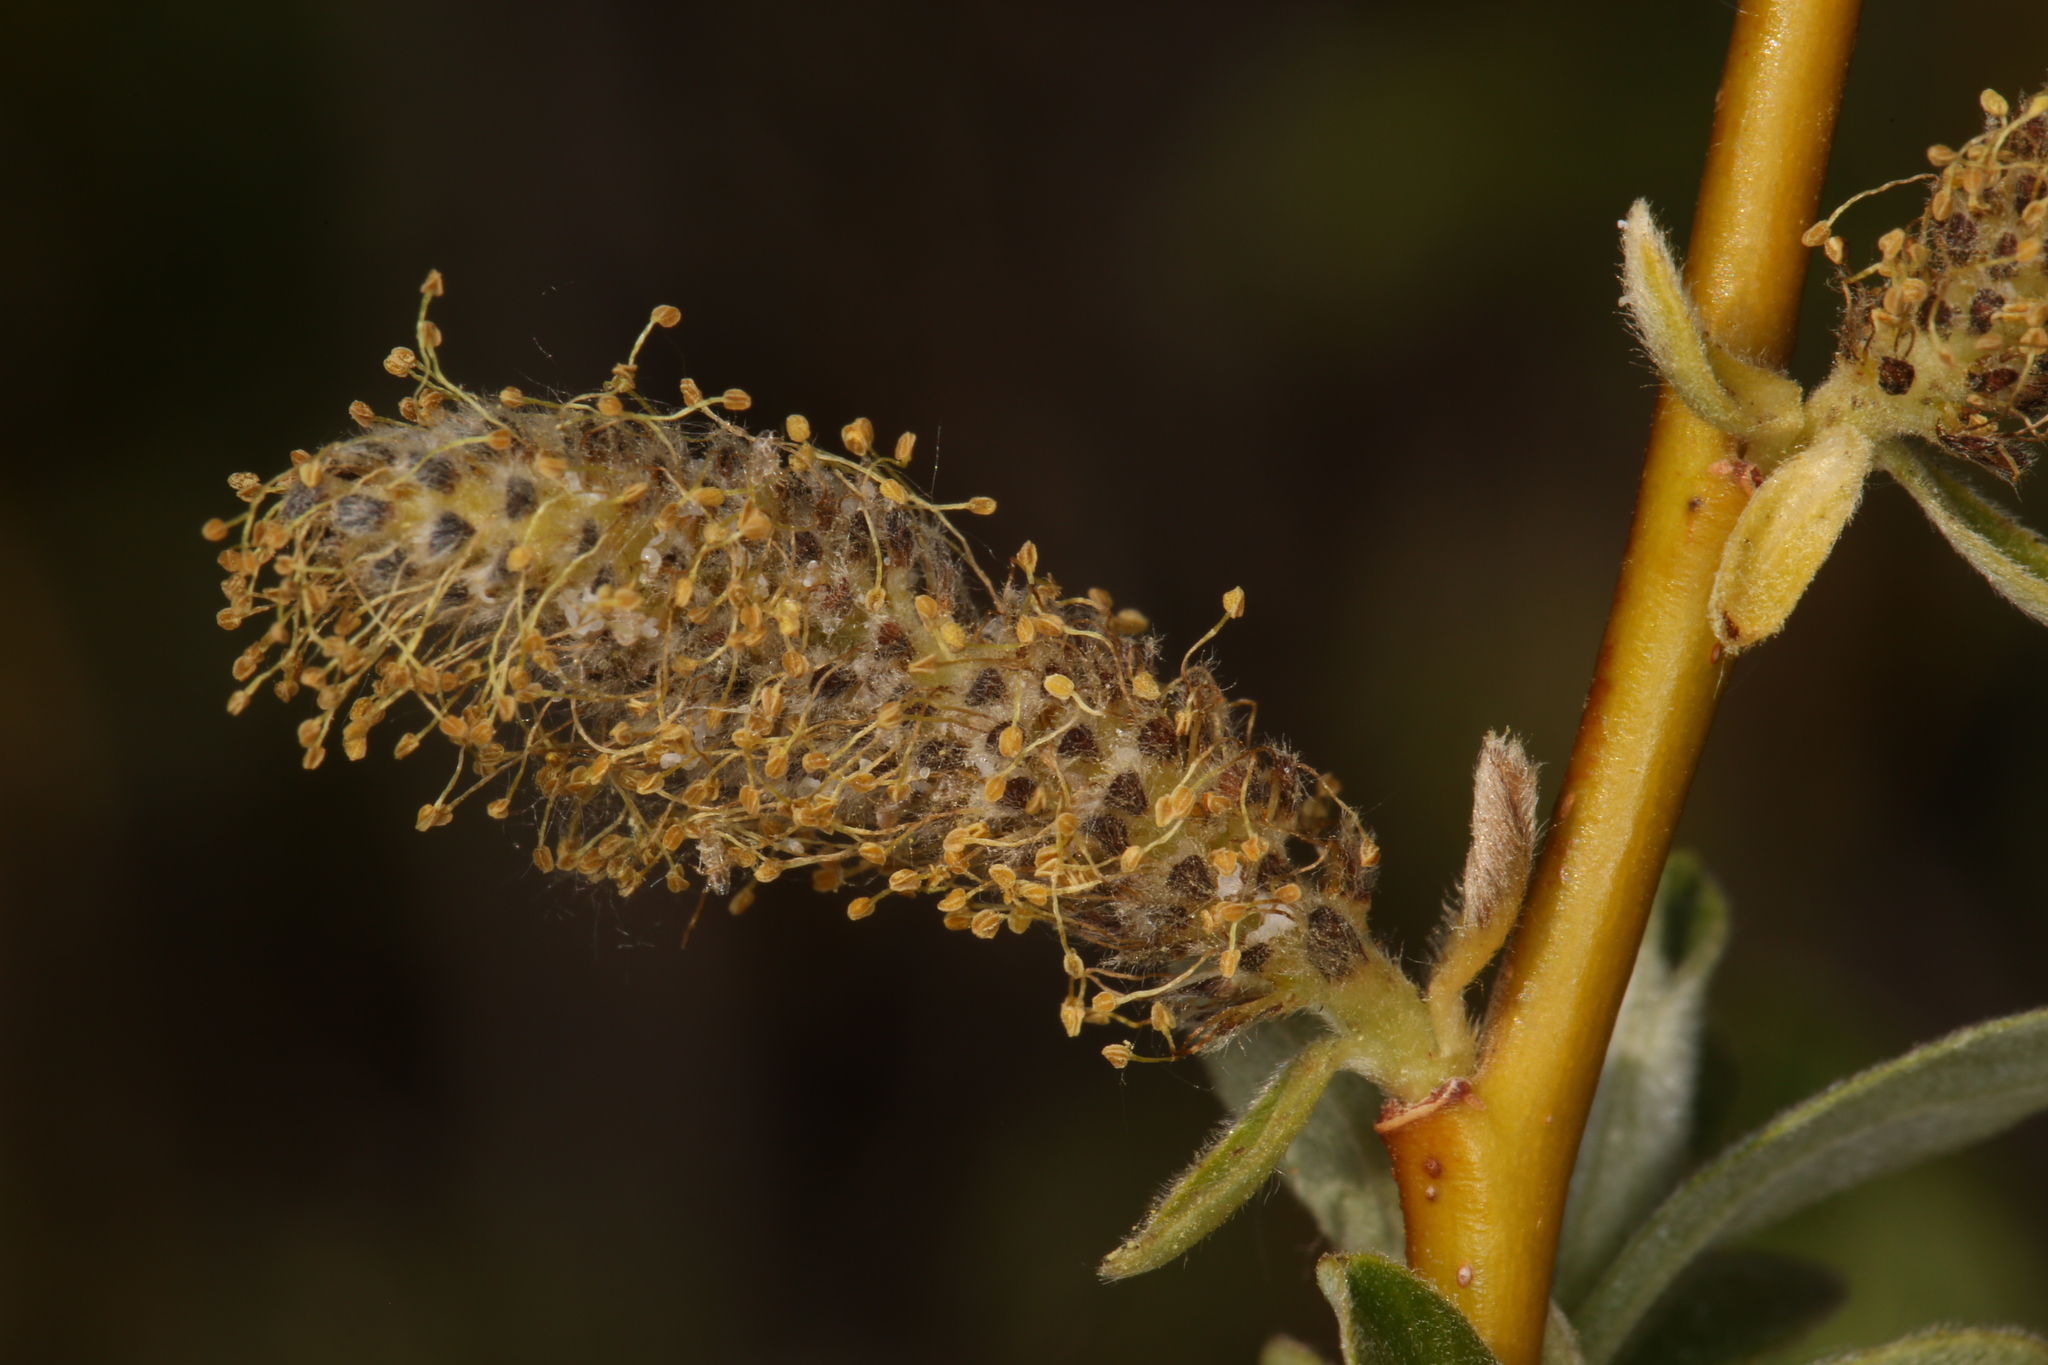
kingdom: Plantae
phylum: Tracheophyta
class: Magnoliopsida
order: Malpighiales
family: Salicaceae
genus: Salix
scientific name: Salix lasiolepis
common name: Arroyo willow
